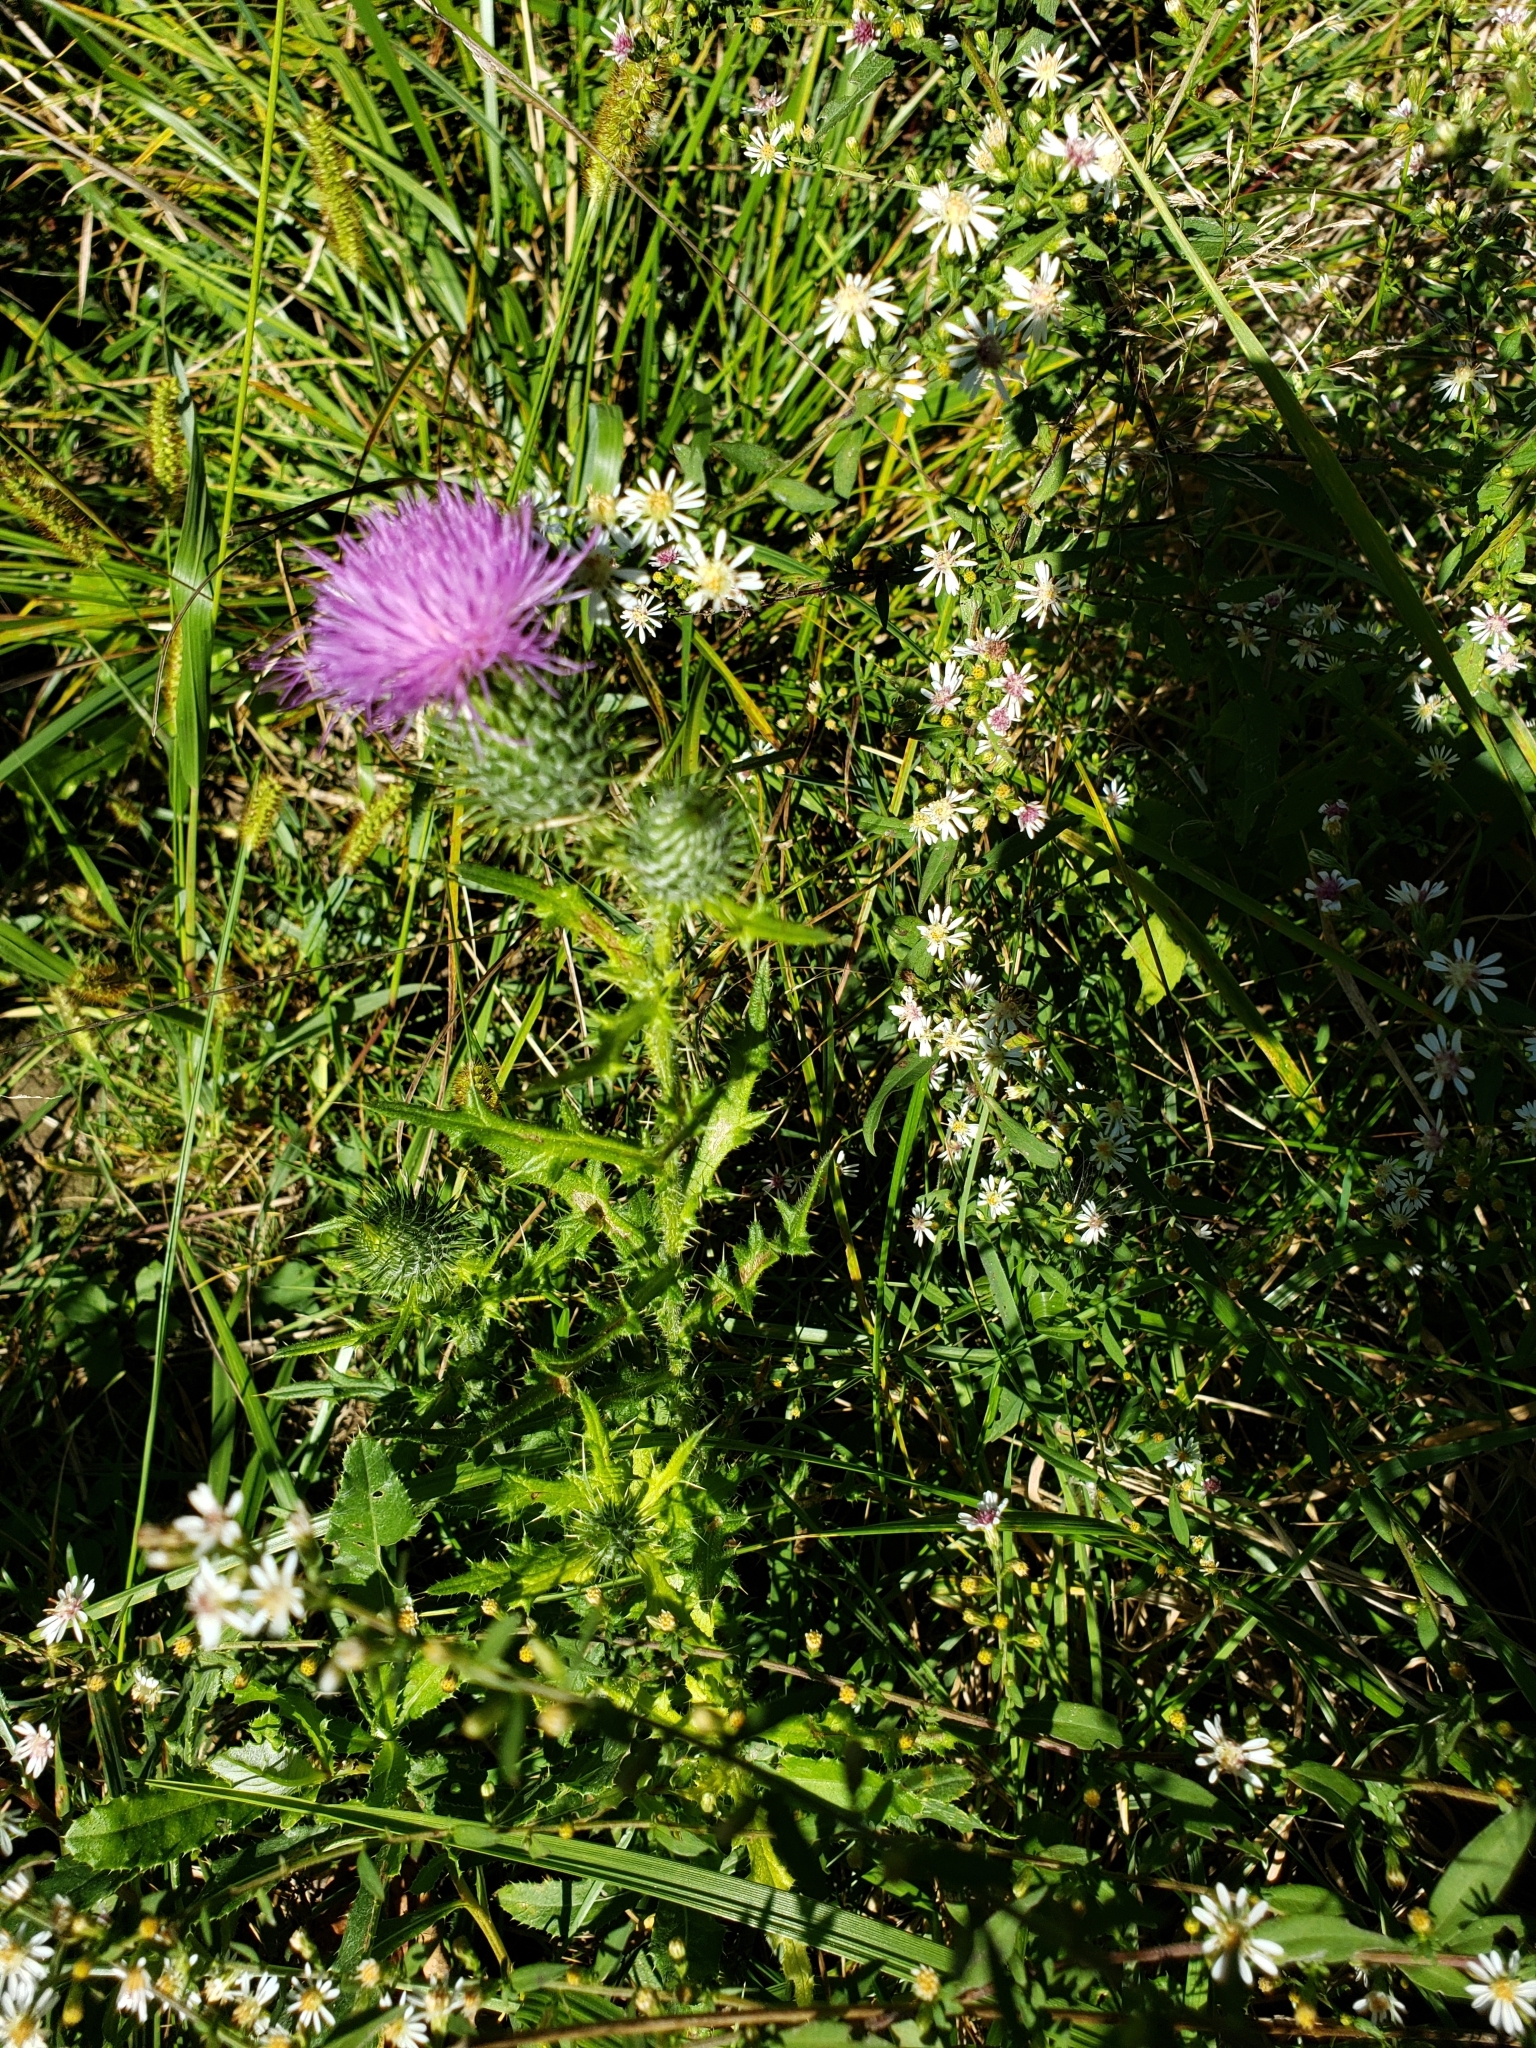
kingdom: Plantae
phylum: Tracheophyta
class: Magnoliopsida
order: Asterales
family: Asteraceae
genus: Cirsium
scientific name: Cirsium vulgare
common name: Bull thistle
